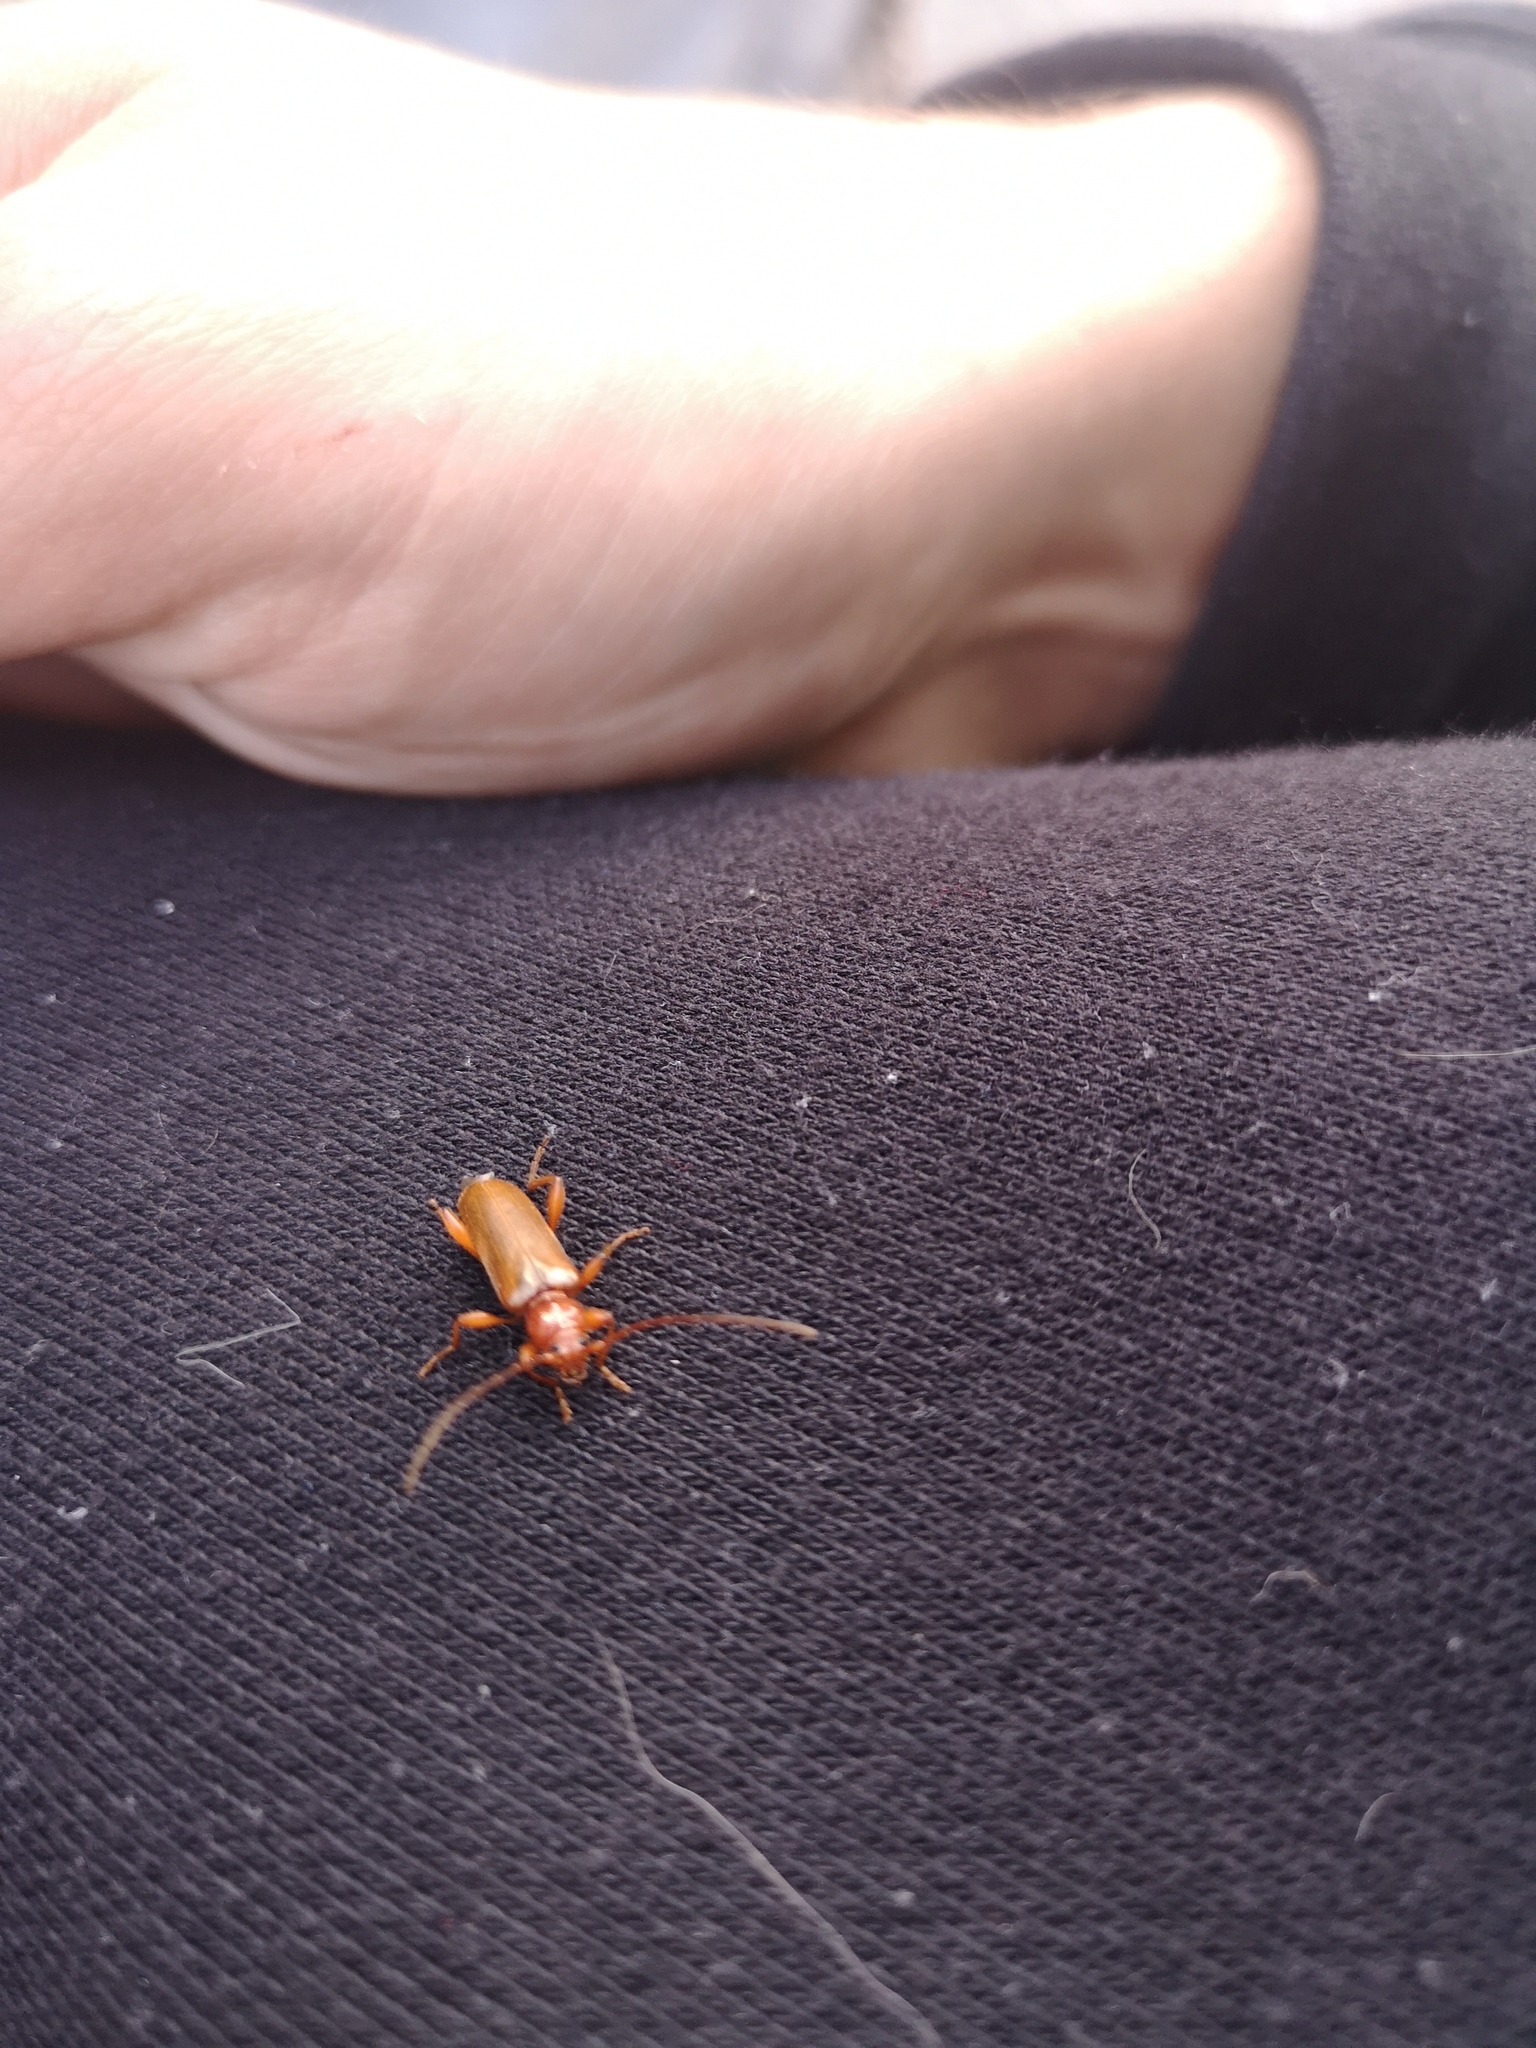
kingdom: Animalia
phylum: Arthropoda
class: Insecta
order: Coleoptera
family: Cerambycidae
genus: Phymatodes
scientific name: Phymatodes testaceus
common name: Long-horned beetle
